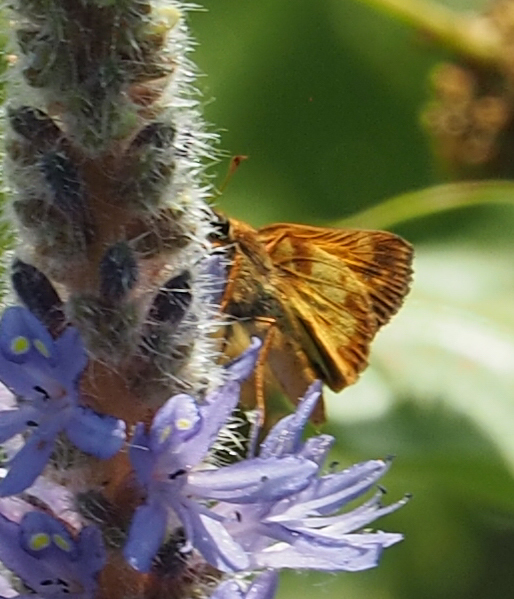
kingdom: Animalia
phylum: Arthropoda
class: Insecta
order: Lepidoptera
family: Hesperiidae
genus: Lon
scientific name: Lon zabulon
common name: Zabulon skipper
